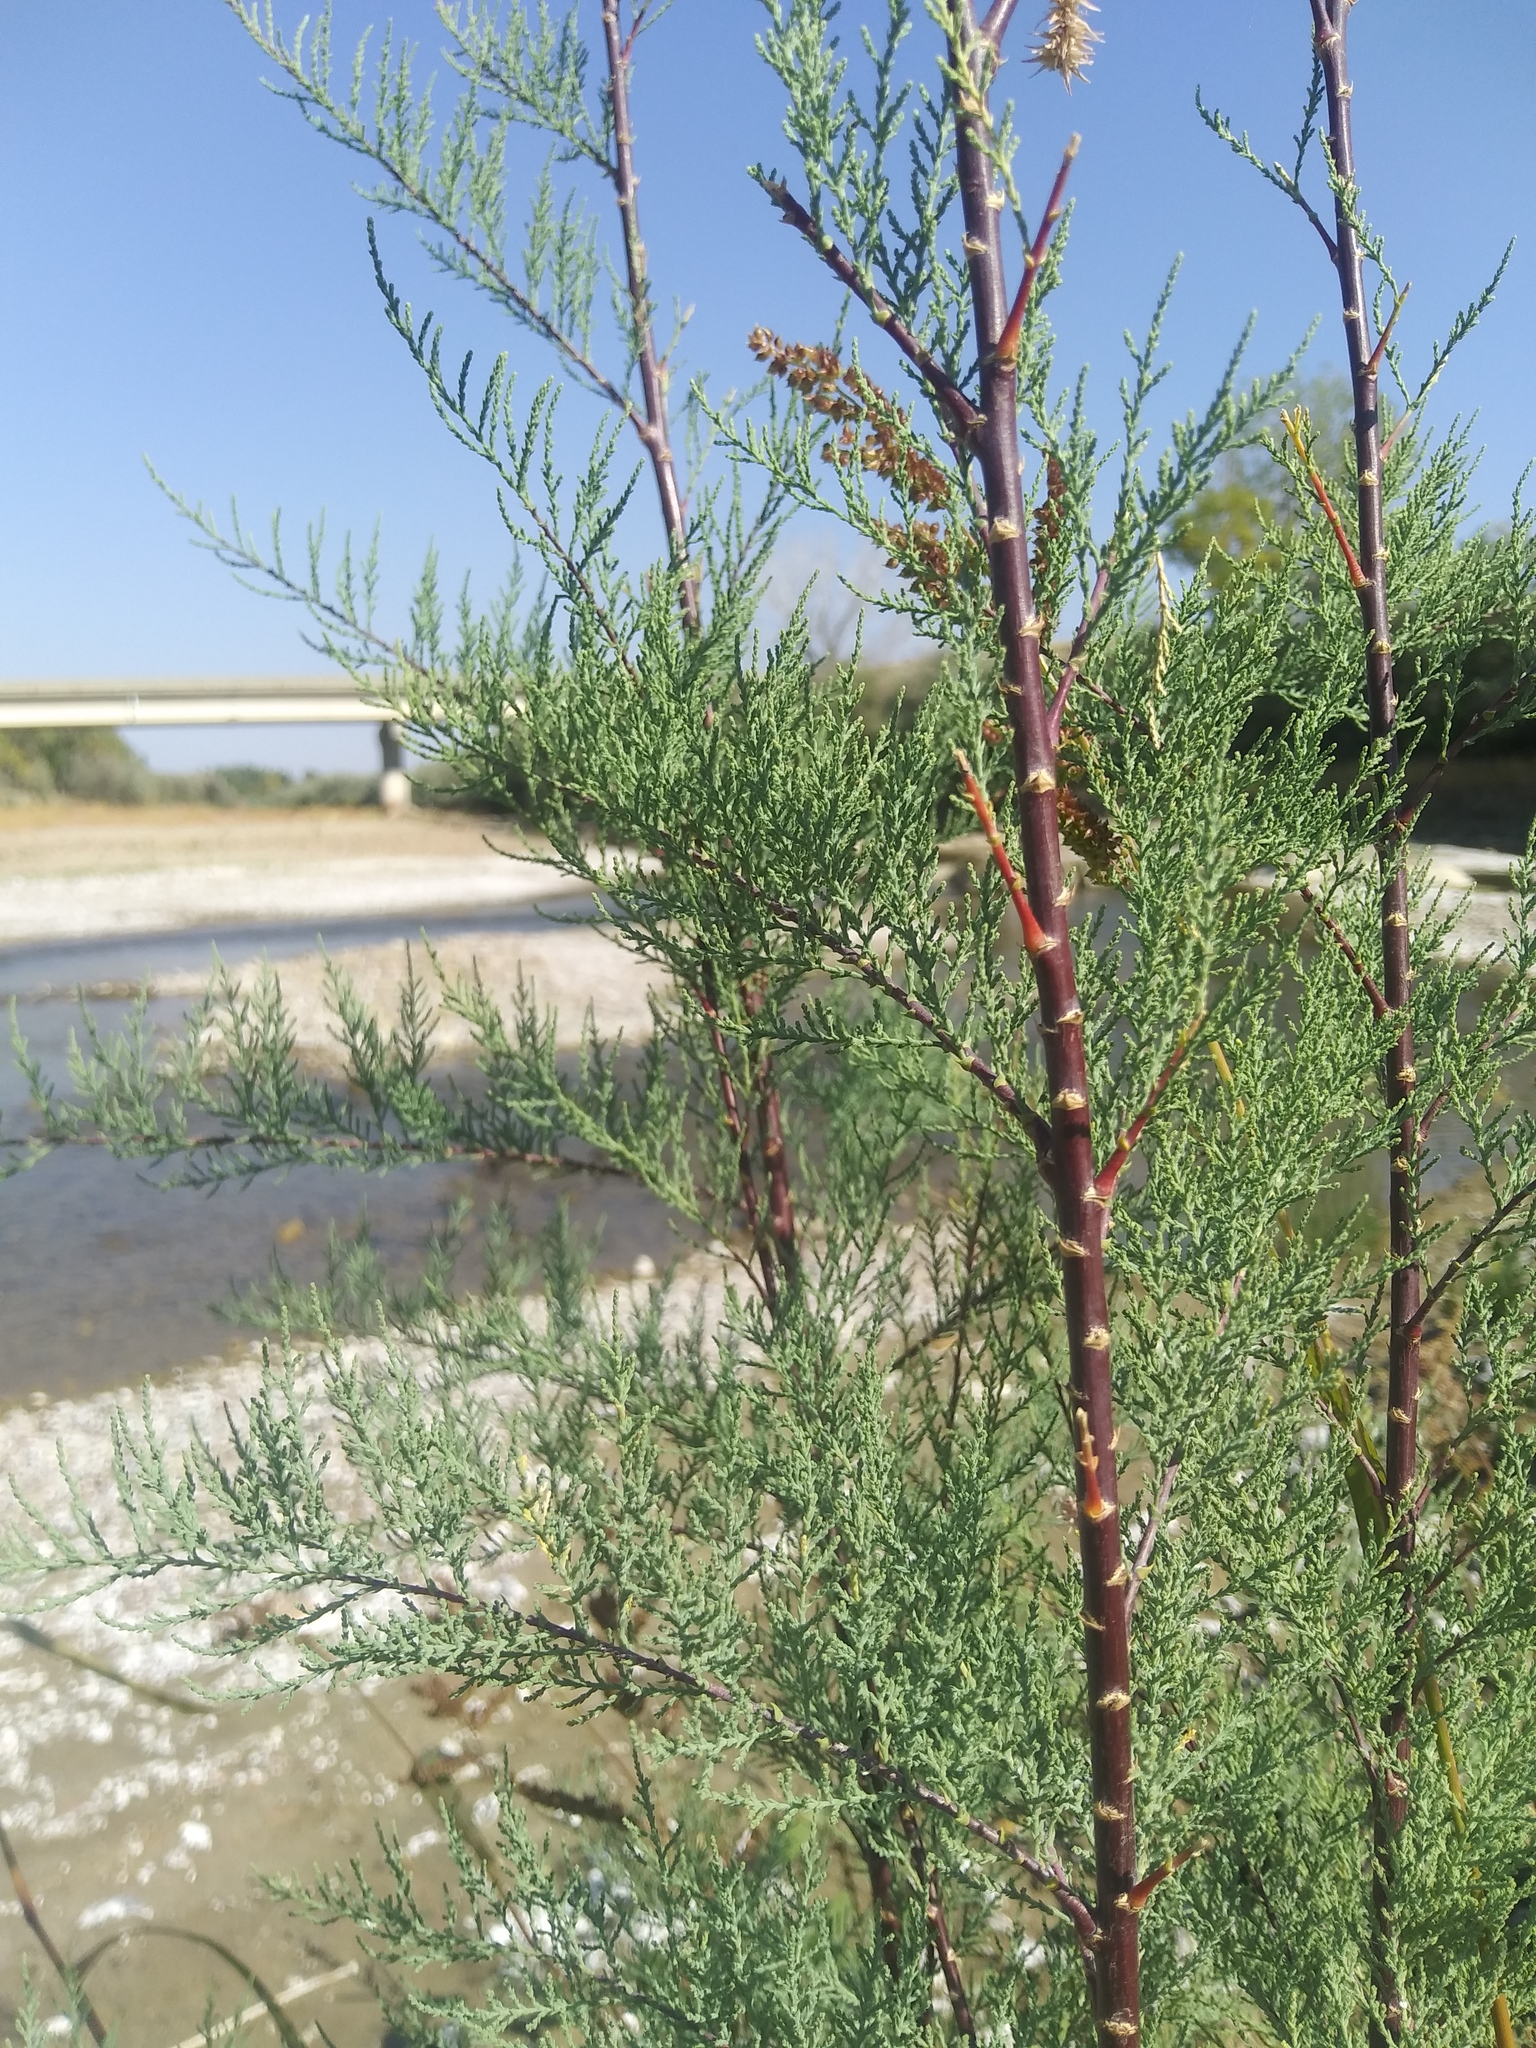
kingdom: Plantae
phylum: Tracheophyta
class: Magnoliopsida
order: Caryophyllales
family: Tamaricaceae
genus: Tamarix
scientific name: Tamarix
